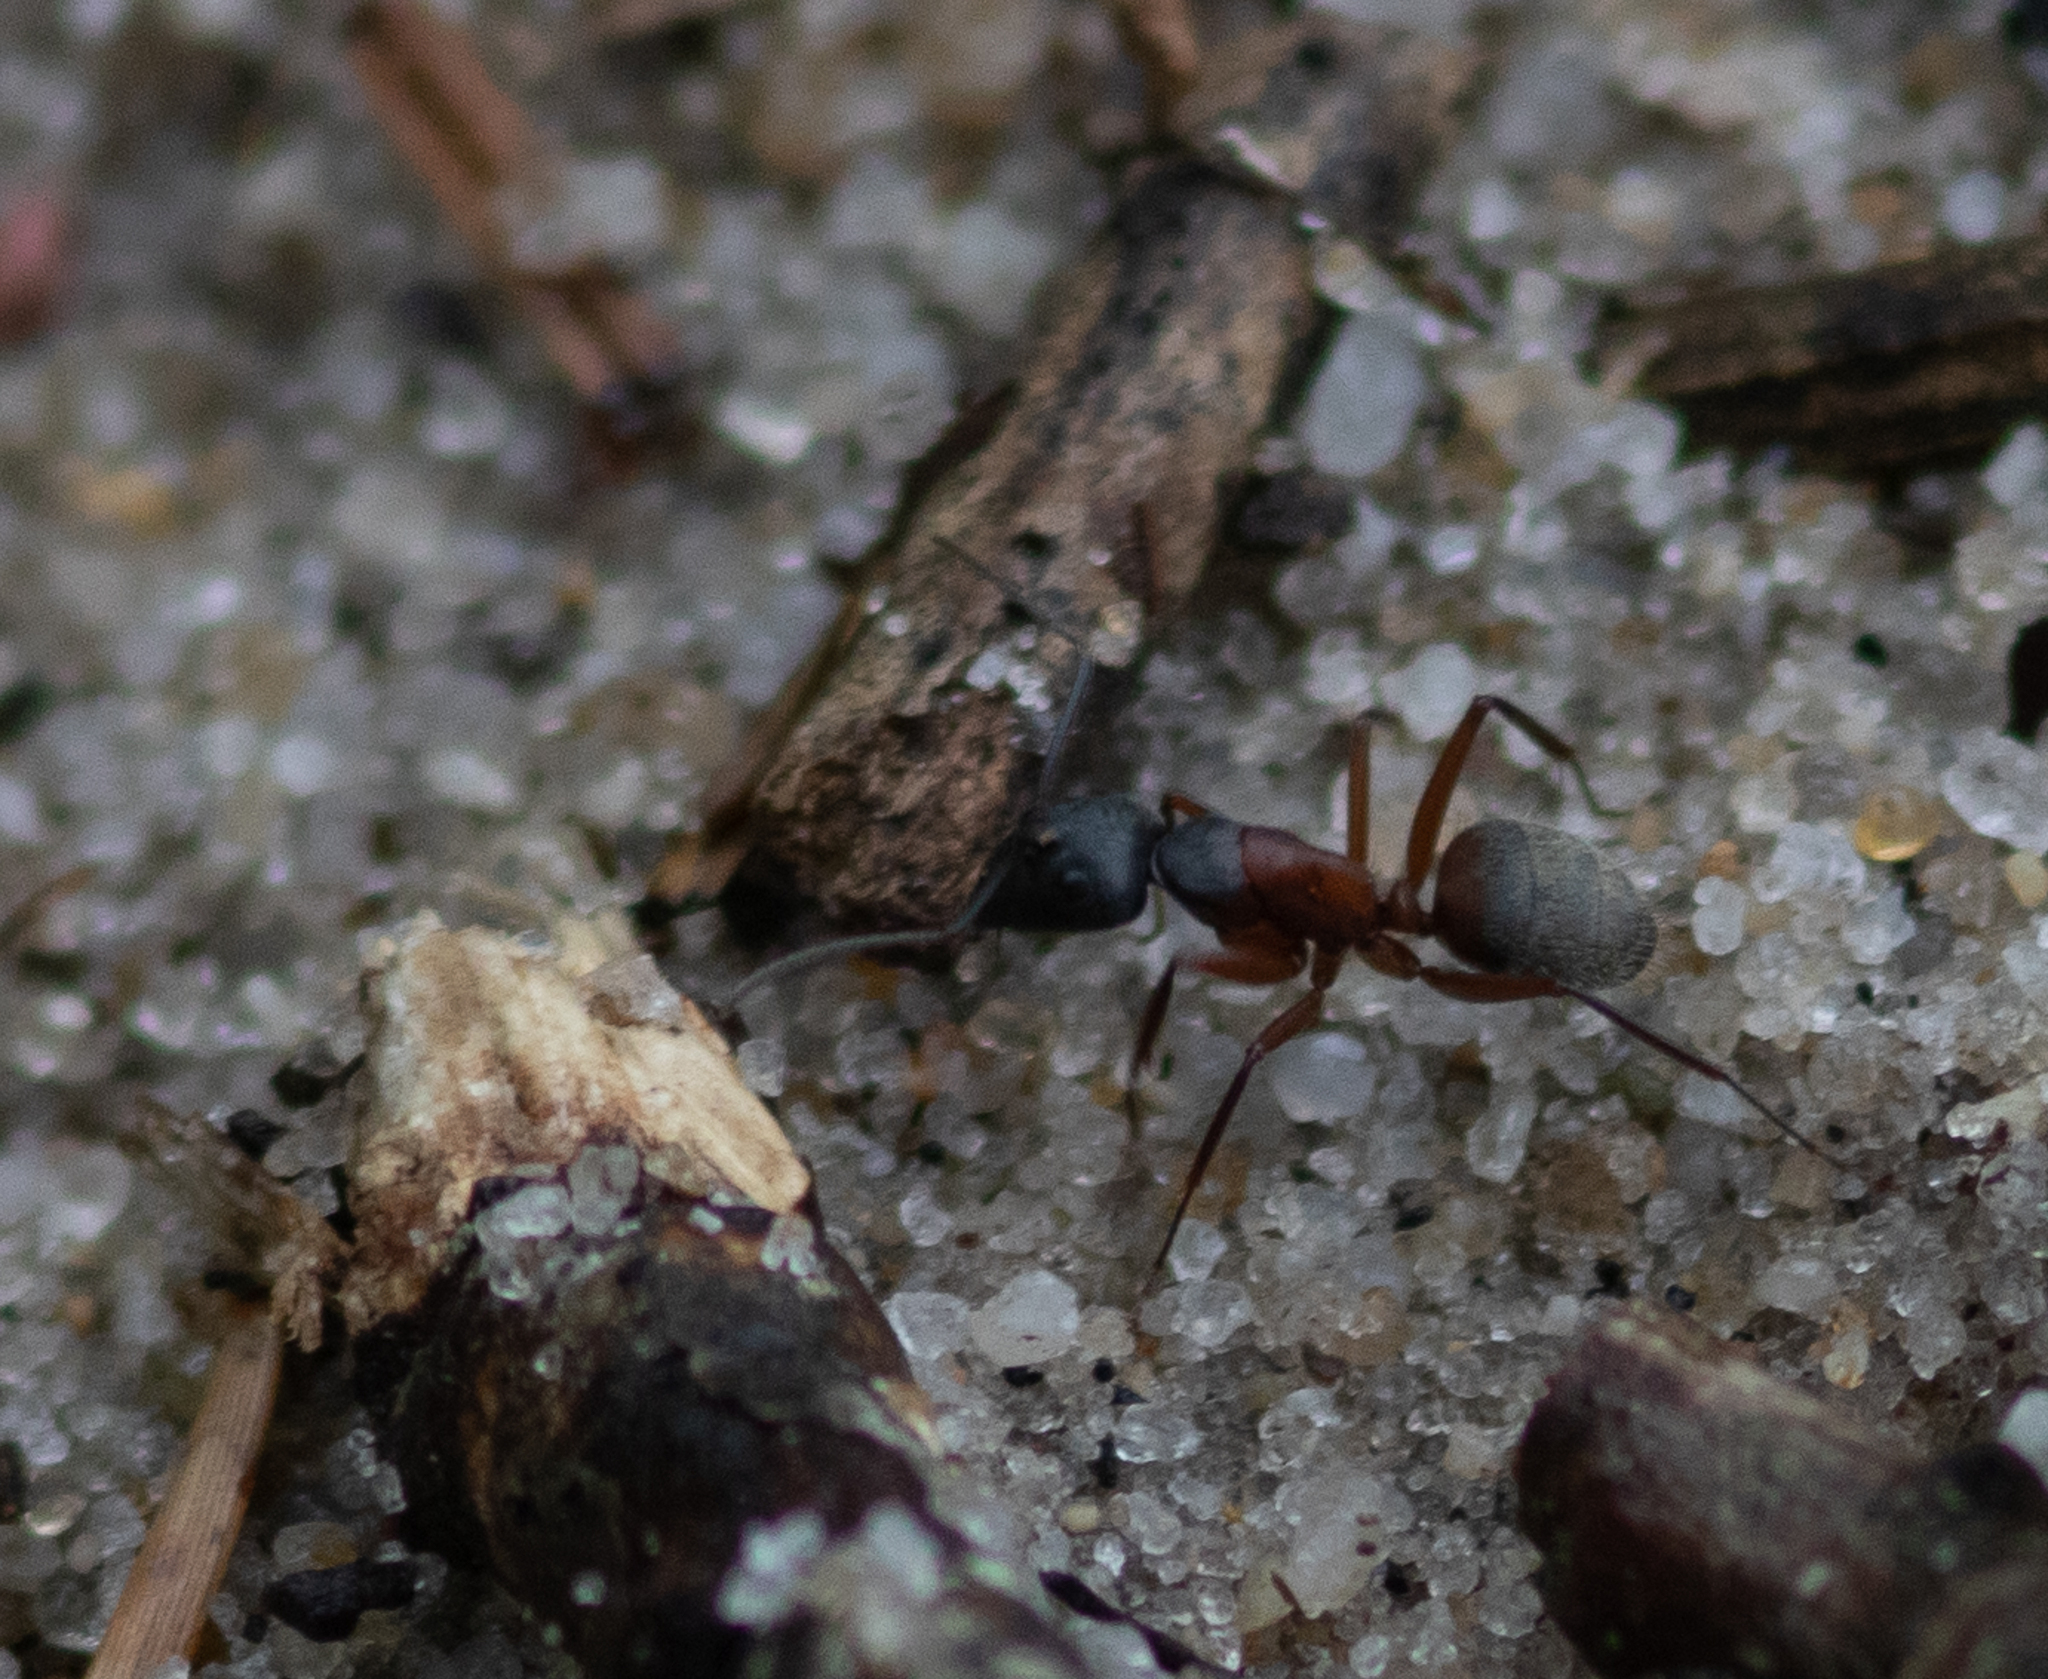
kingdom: Animalia
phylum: Arthropoda
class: Insecta
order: Hymenoptera
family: Formicidae
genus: Camponotus
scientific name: Camponotus chromaiodes
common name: Red carpenter ant
